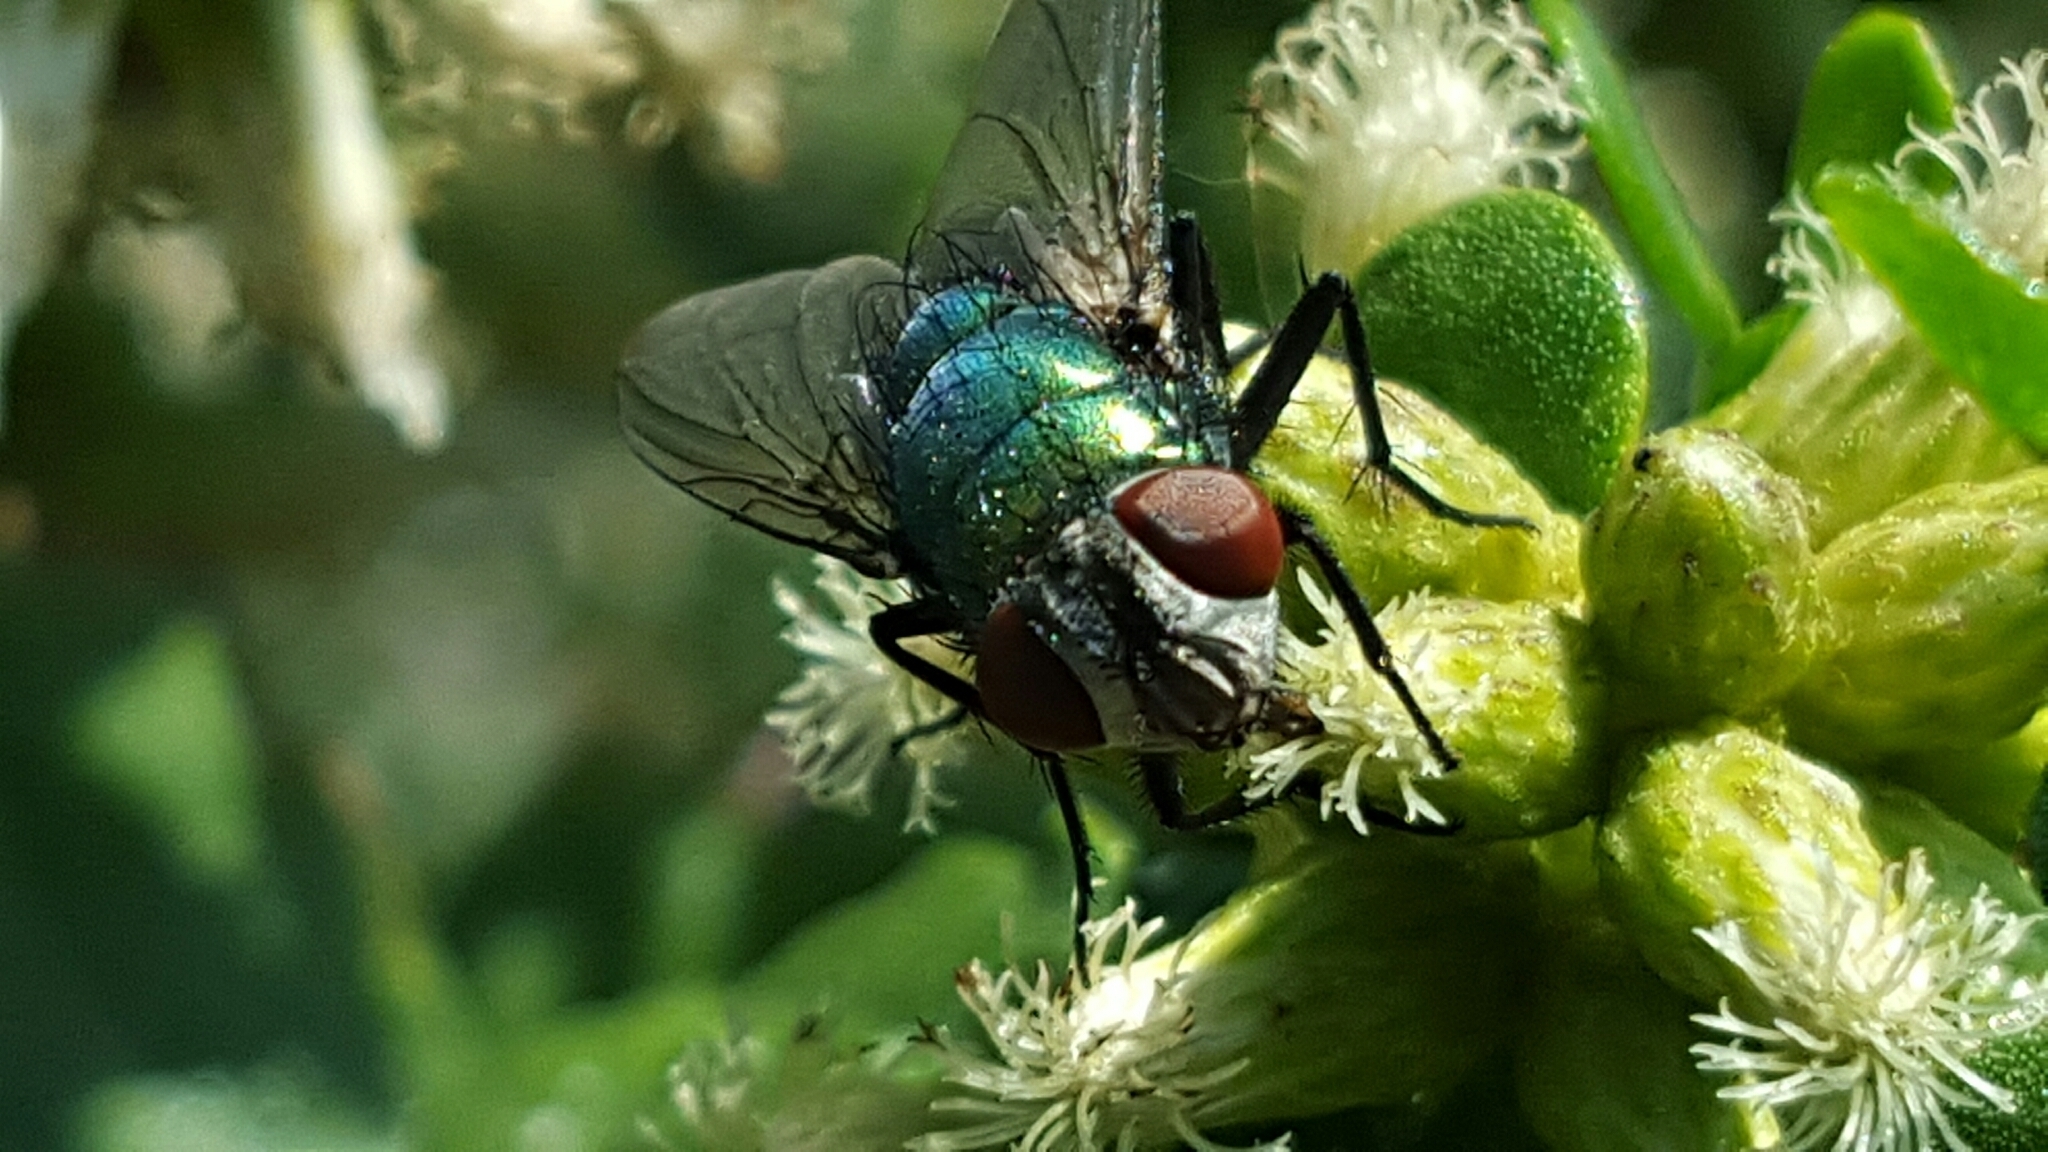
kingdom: Animalia
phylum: Arthropoda
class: Insecta
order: Diptera
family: Calliphoridae
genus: Lucilia
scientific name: Lucilia sericata
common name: Blow fly
